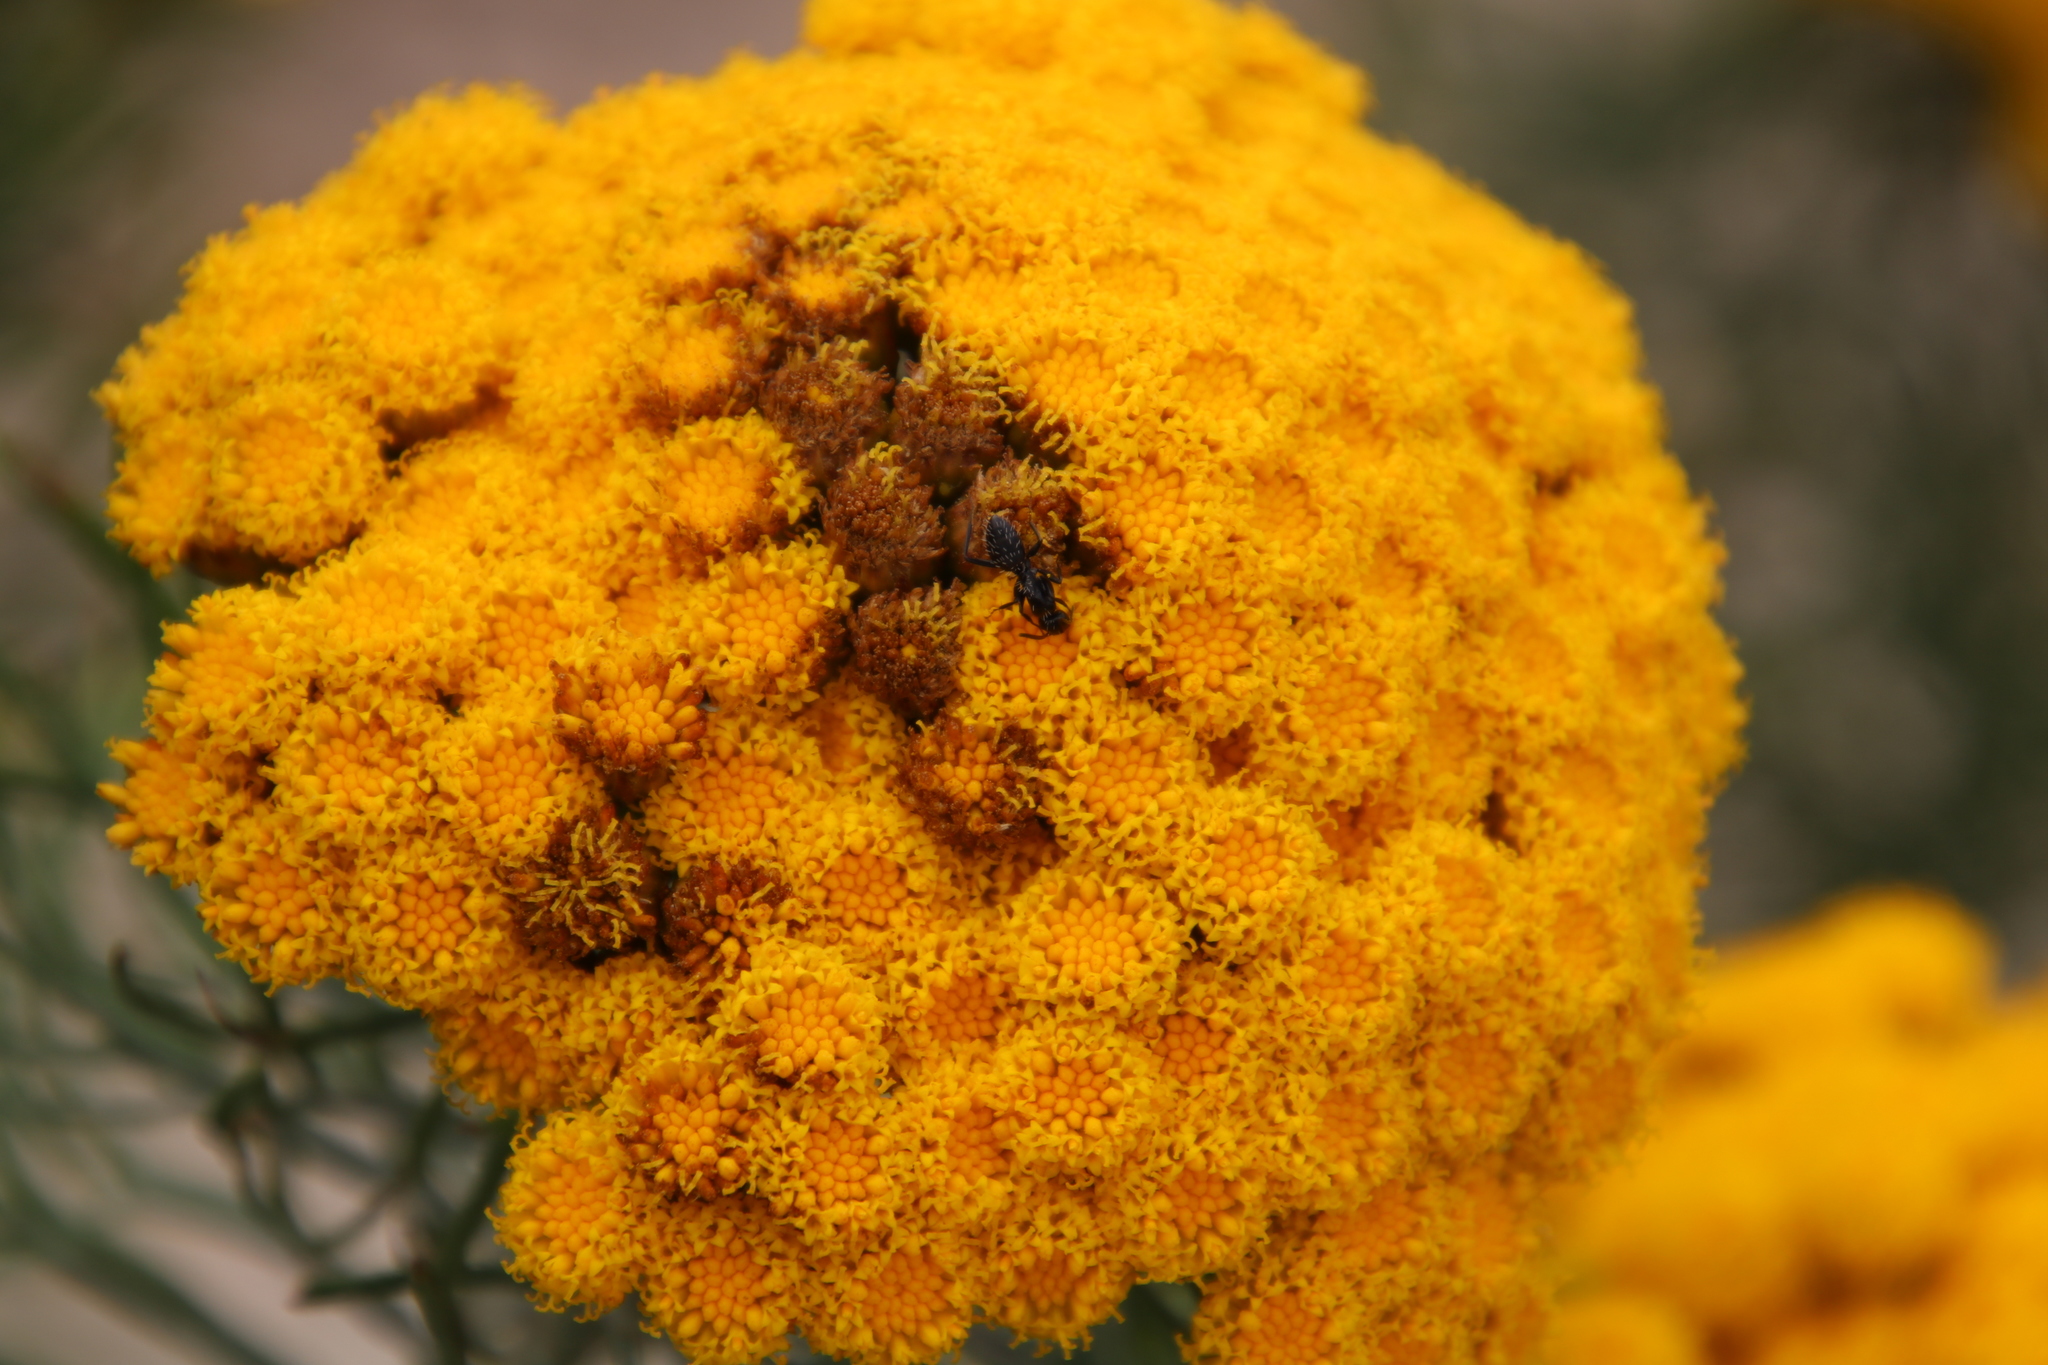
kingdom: Animalia
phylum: Arthropoda
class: Insecta
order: Hymenoptera
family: Formicidae
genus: Camponotus
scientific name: Camponotus niveosetosus
